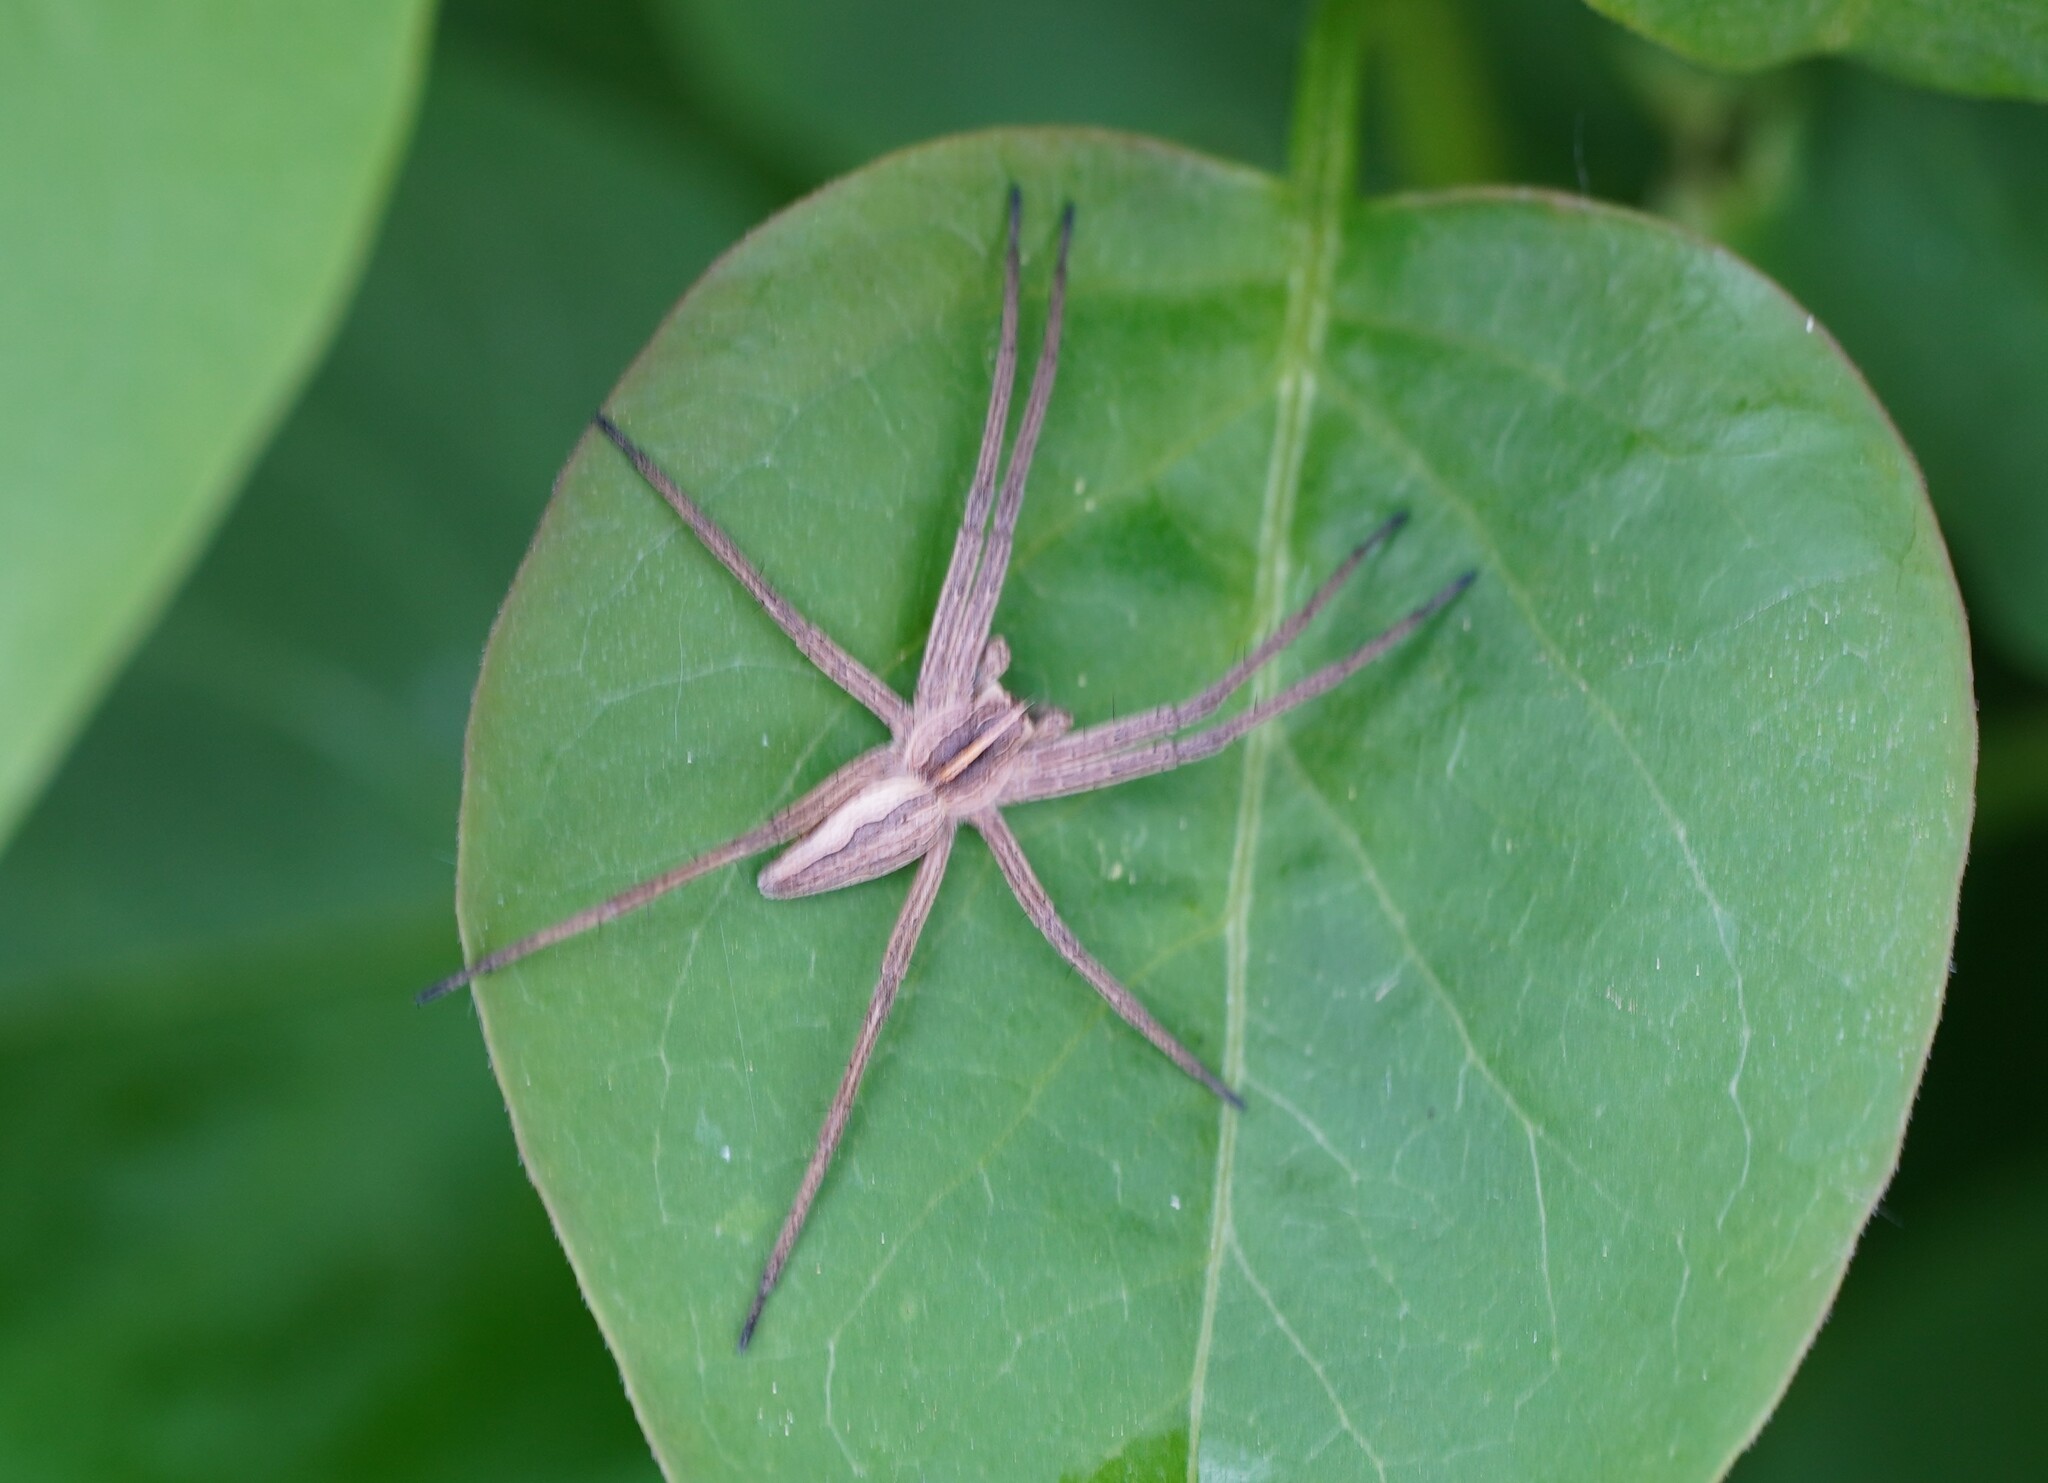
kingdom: Animalia
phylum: Arthropoda
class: Arachnida
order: Araneae
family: Pisauridae
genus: Pisaura
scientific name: Pisaura mirabilis
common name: Tent spider
